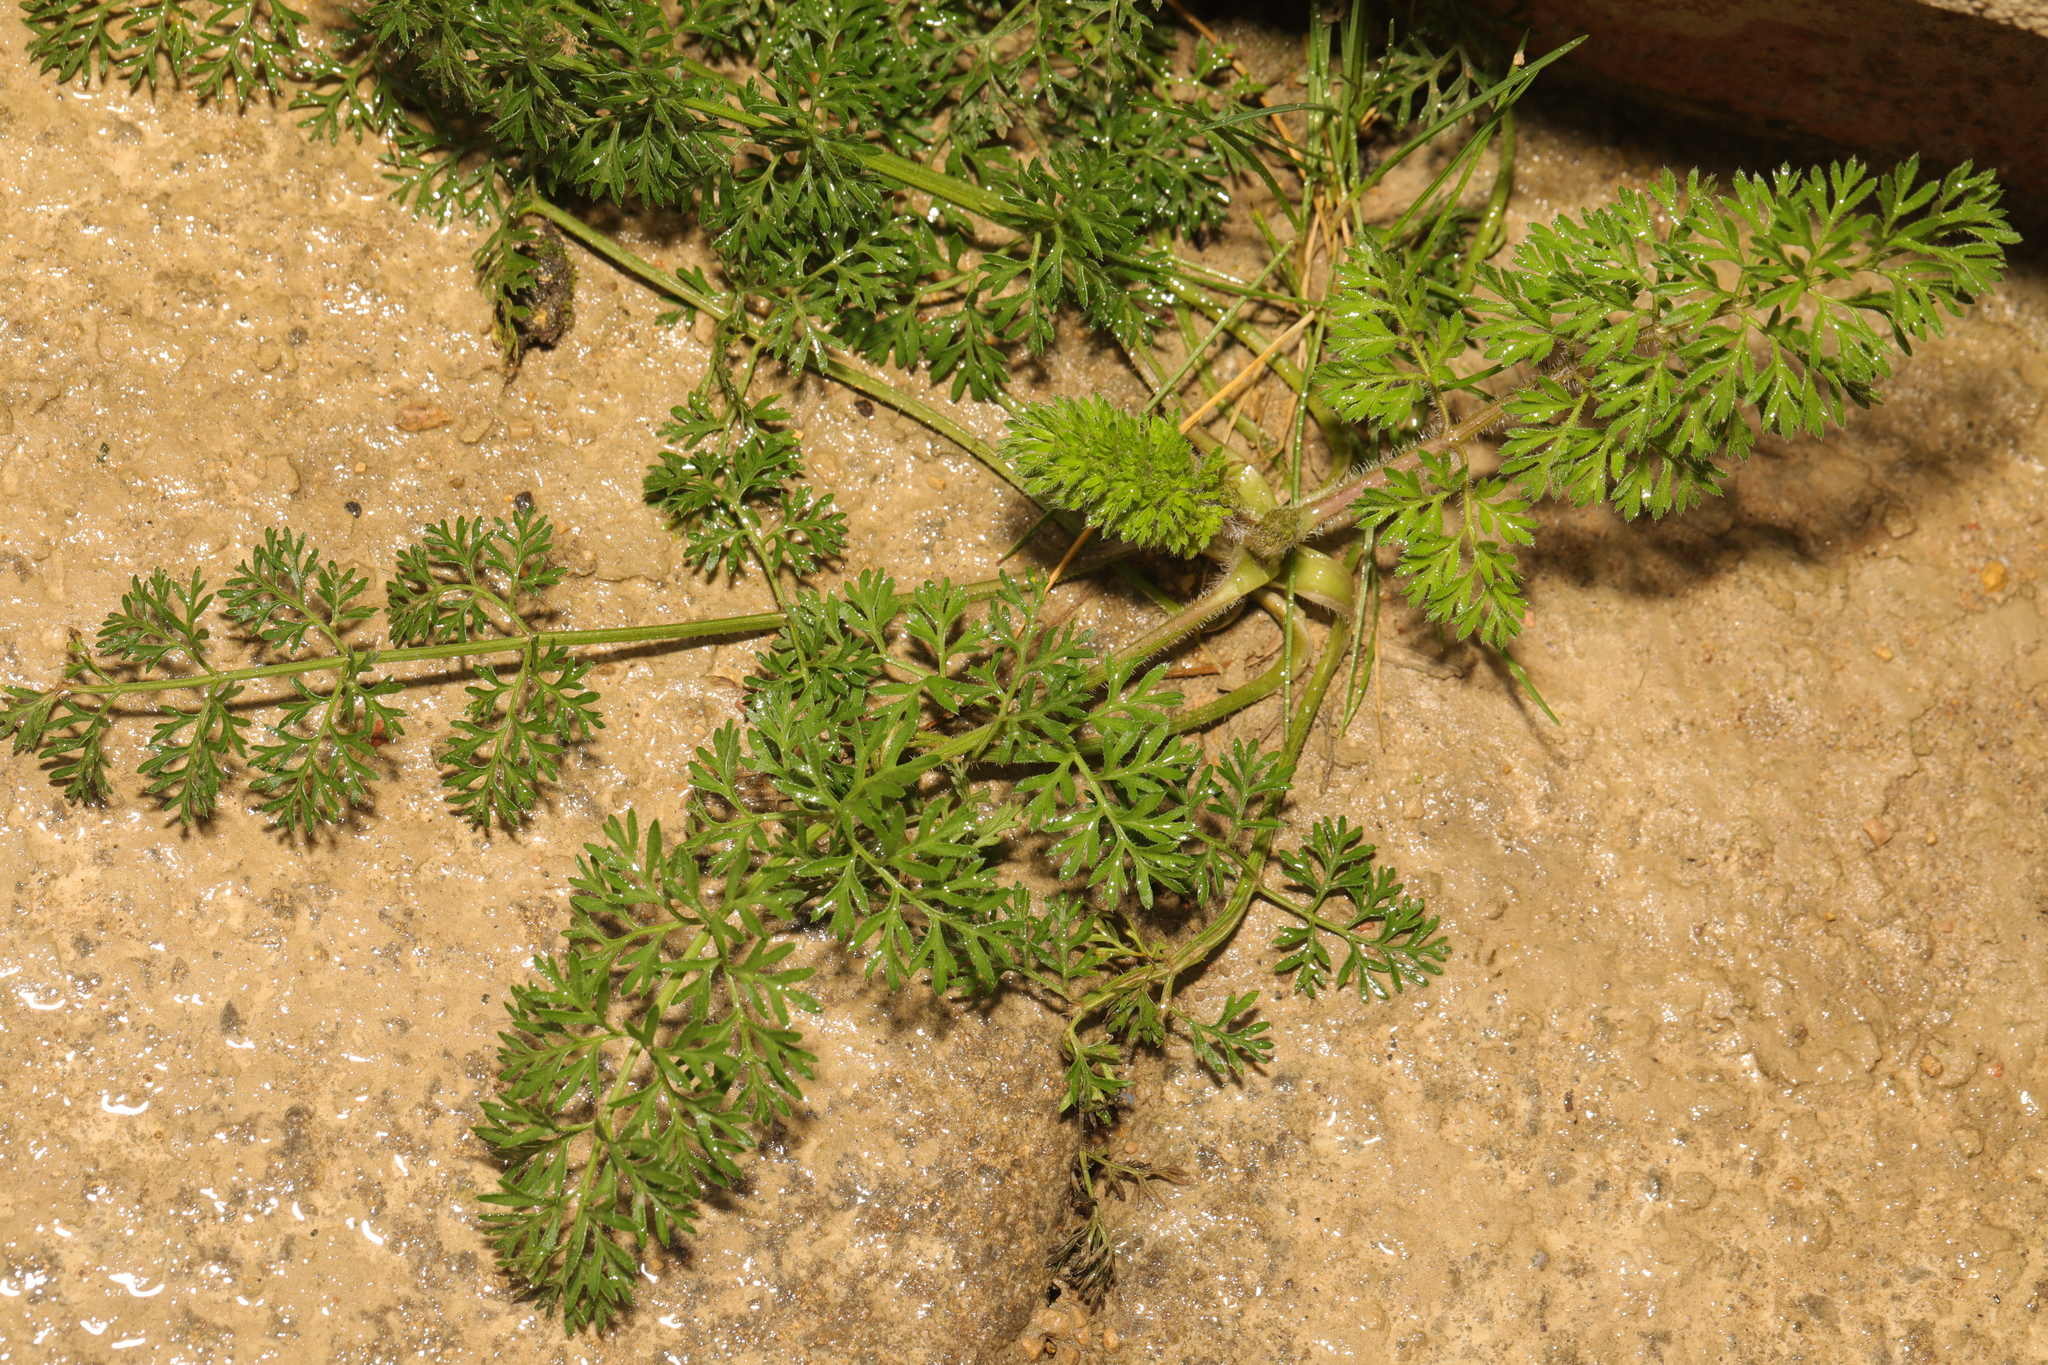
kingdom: Plantae
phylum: Tracheophyta
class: Magnoliopsida
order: Apiales
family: Apiaceae
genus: Daucus
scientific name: Daucus carota
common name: Wild carrot
